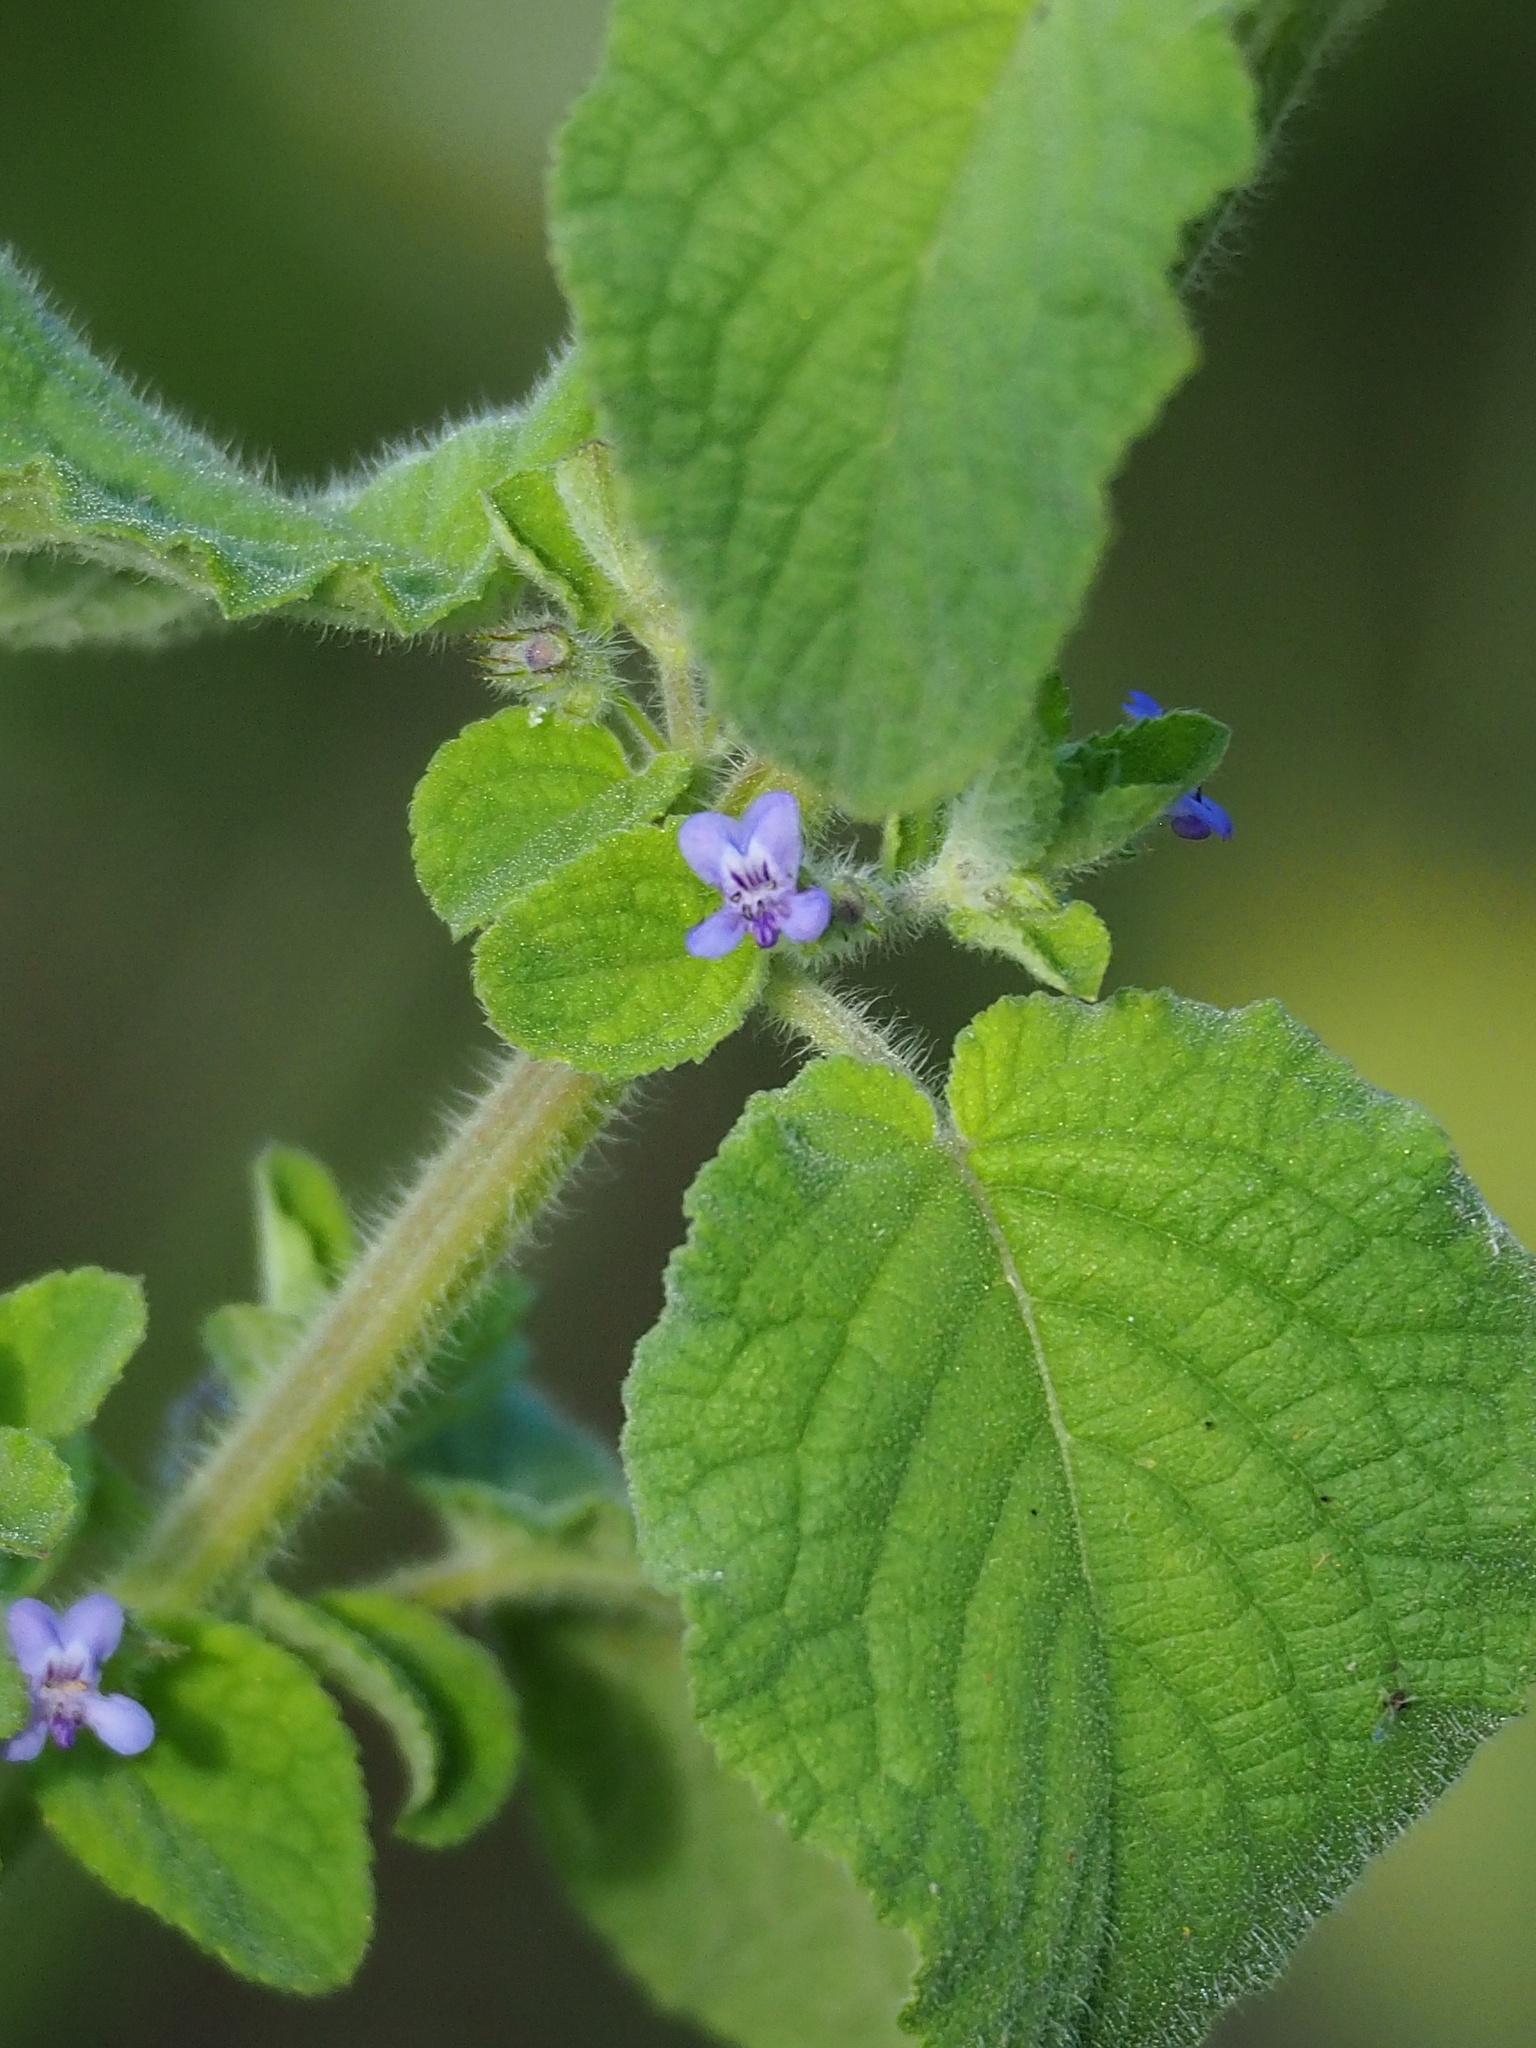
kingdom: Plantae
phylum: Tracheophyta
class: Magnoliopsida
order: Lamiales
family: Lamiaceae
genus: Mesosphaerum
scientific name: Mesosphaerum suaveolens
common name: Pignut
